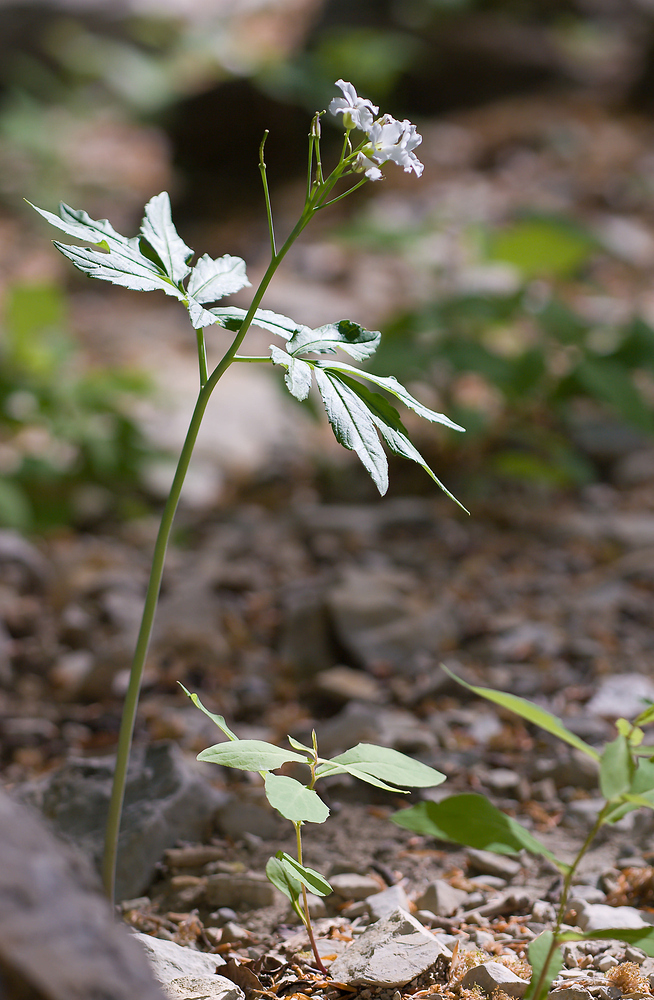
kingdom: Plantae
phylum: Tracheophyta
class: Magnoliopsida
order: Brassicales
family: Brassicaceae
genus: Cardamine
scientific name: Cardamine heptaphylla
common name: Pinnate coralroot
